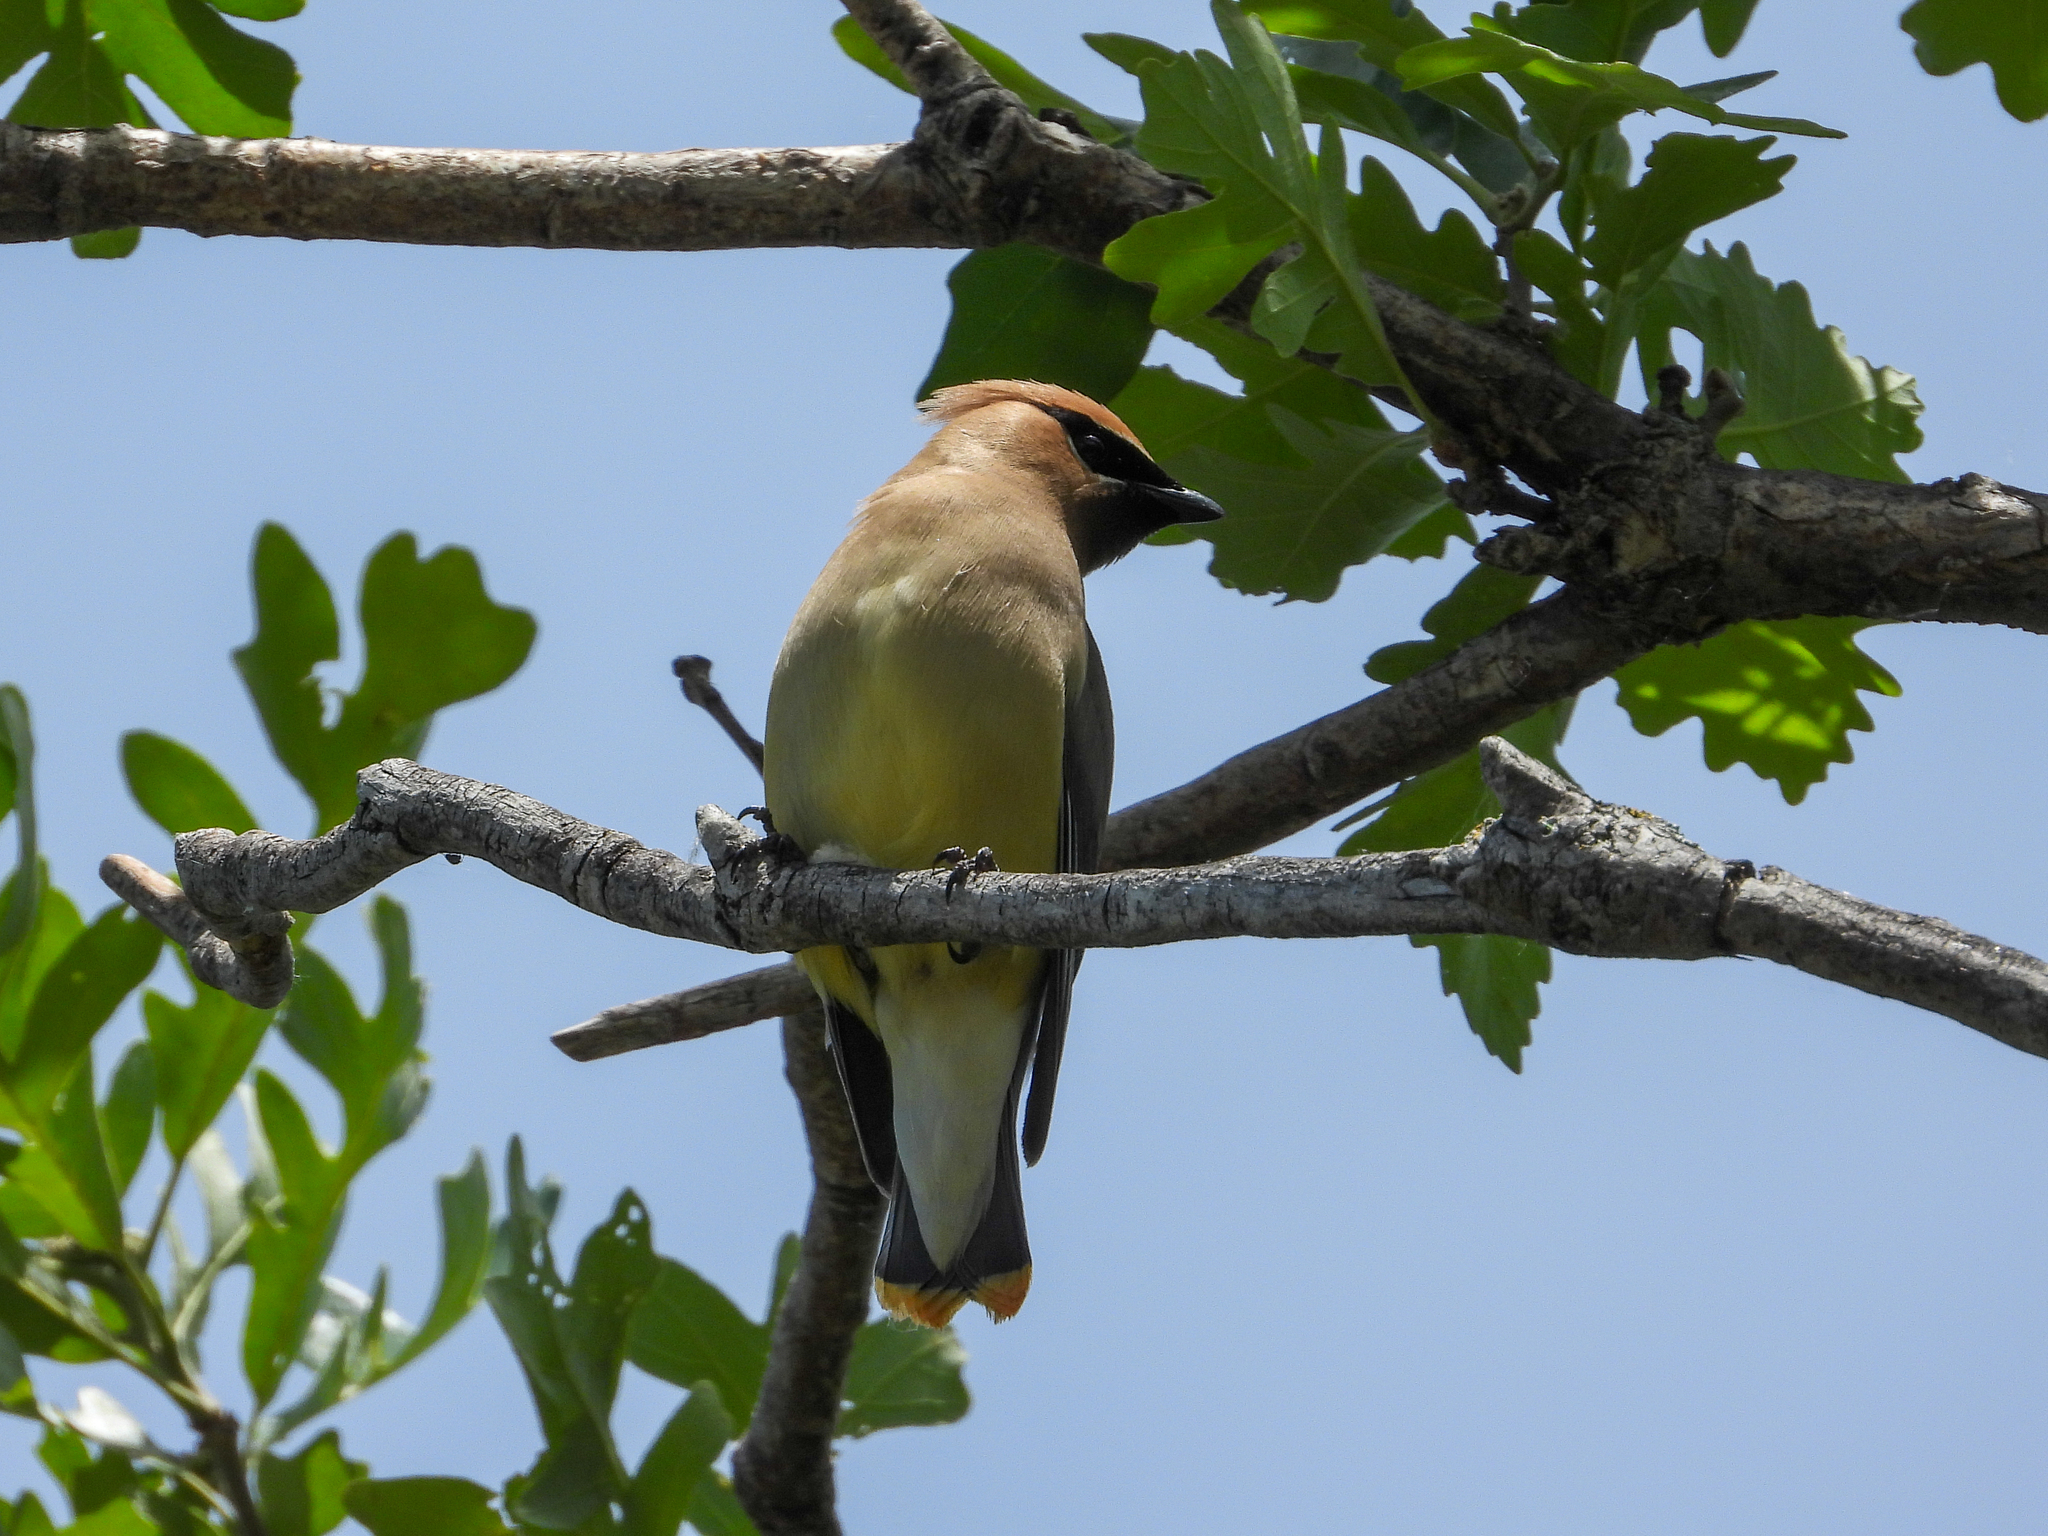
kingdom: Animalia
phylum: Chordata
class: Aves
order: Passeriformes
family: Bombycillidae
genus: Bombycilla
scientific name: Bombycilla cedrorum
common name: Cedar waxwing
